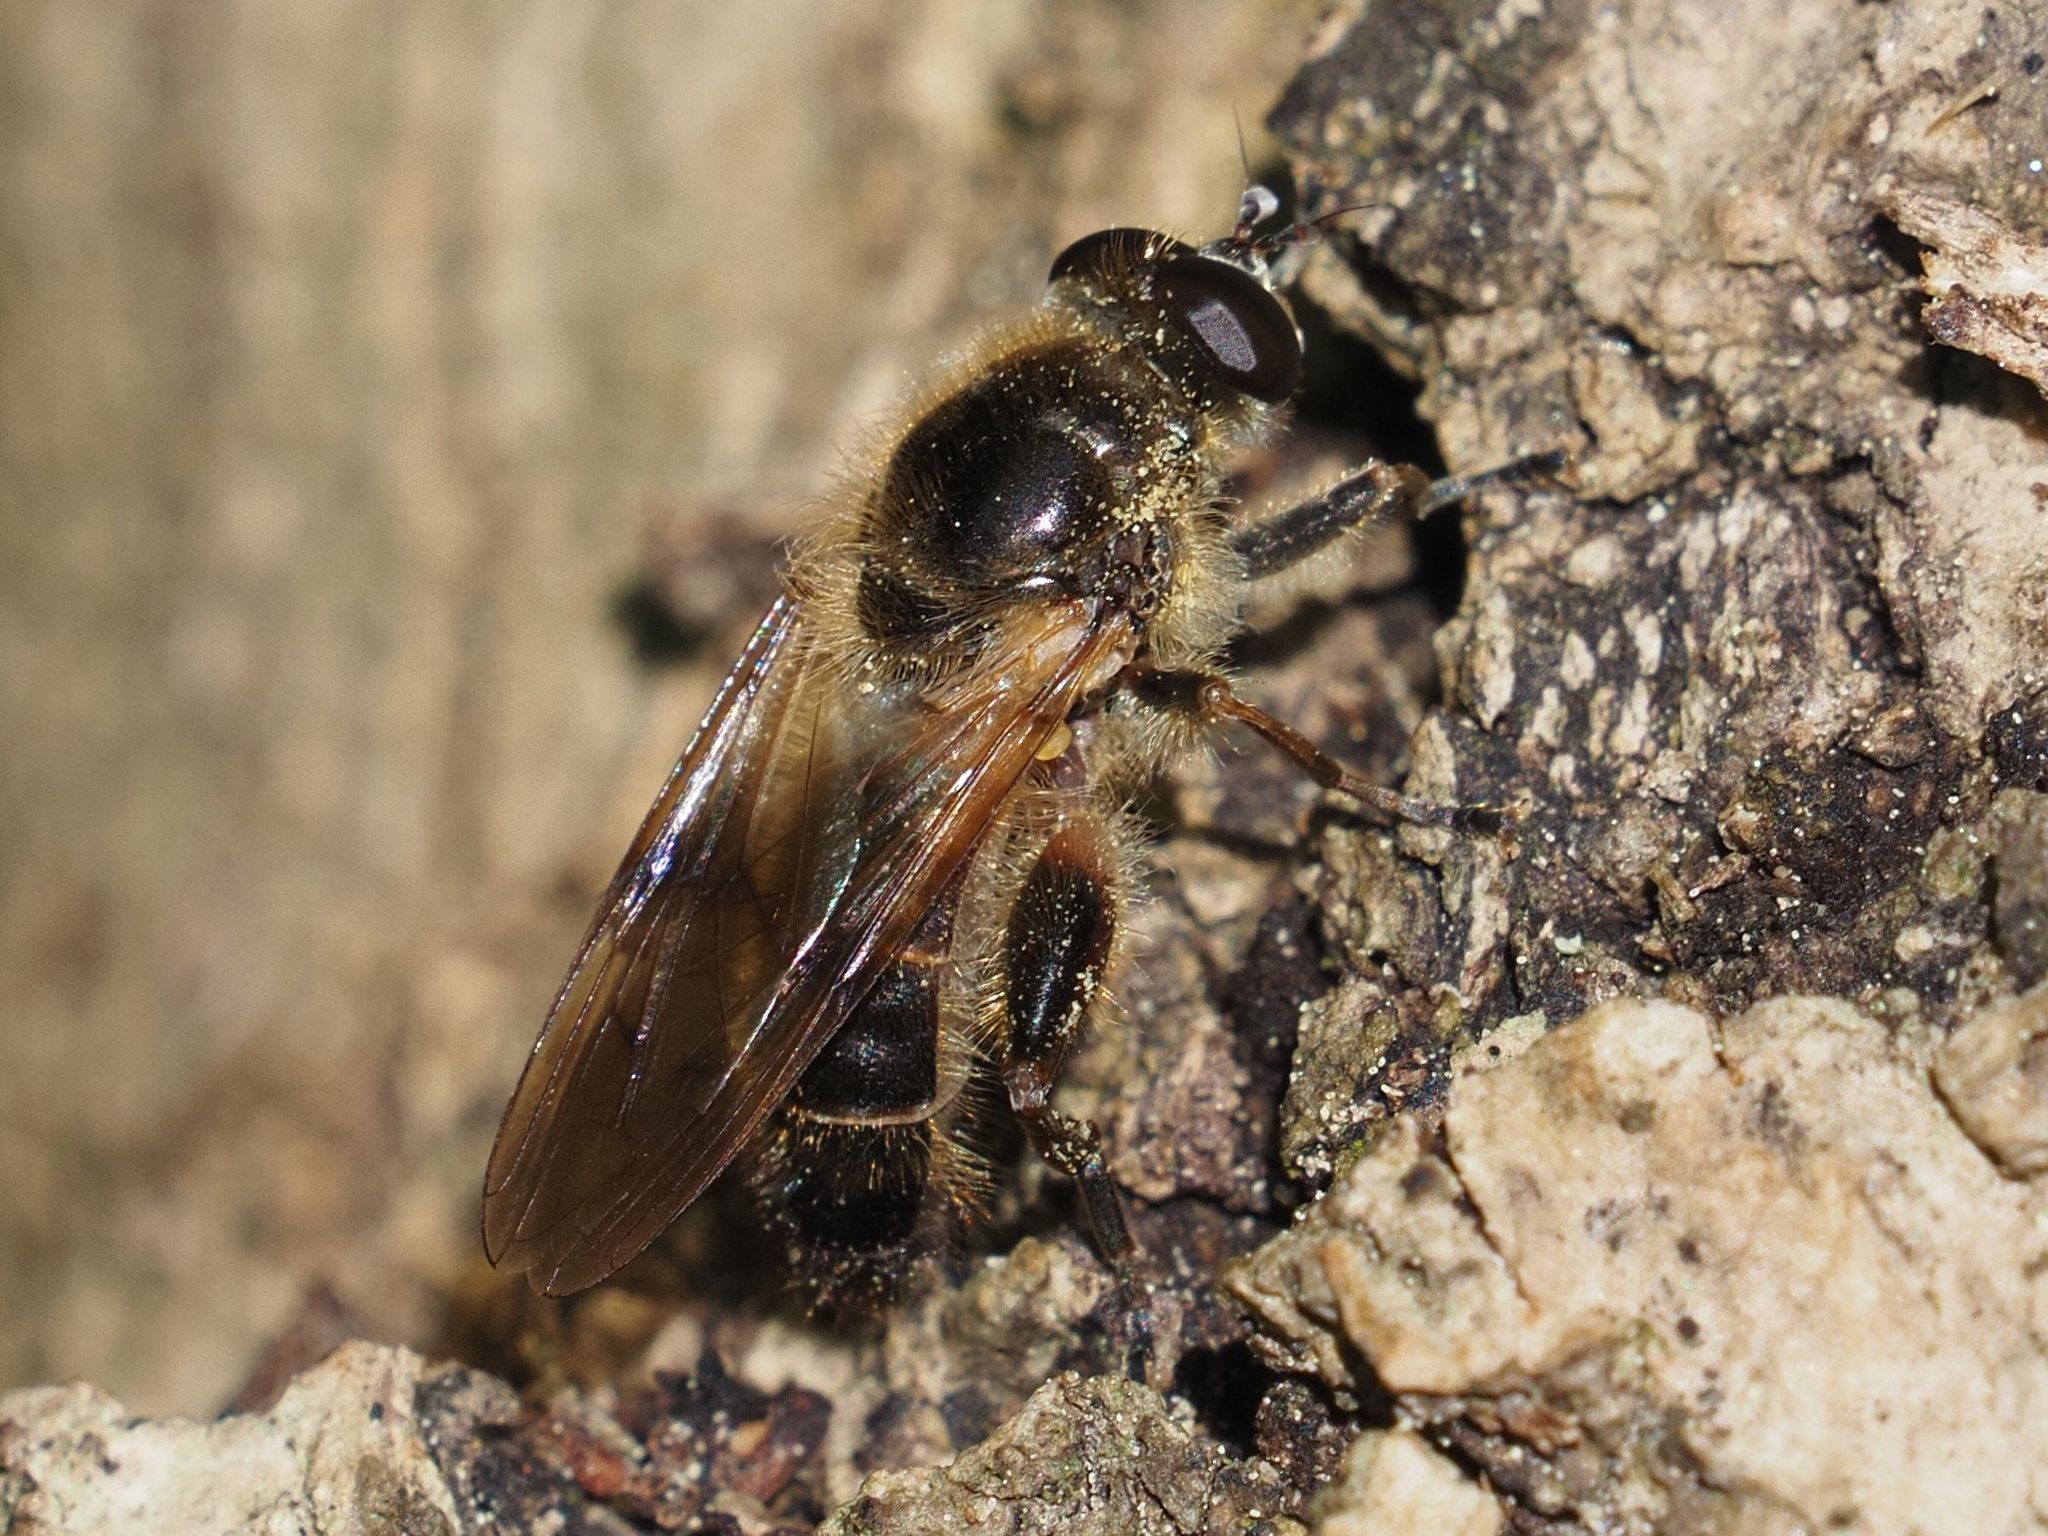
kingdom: Animalia
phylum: Arthropoda
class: Insecta
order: Diptera
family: Syrphidae
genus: Brachypalpus
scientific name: Brachypalpus valgus
